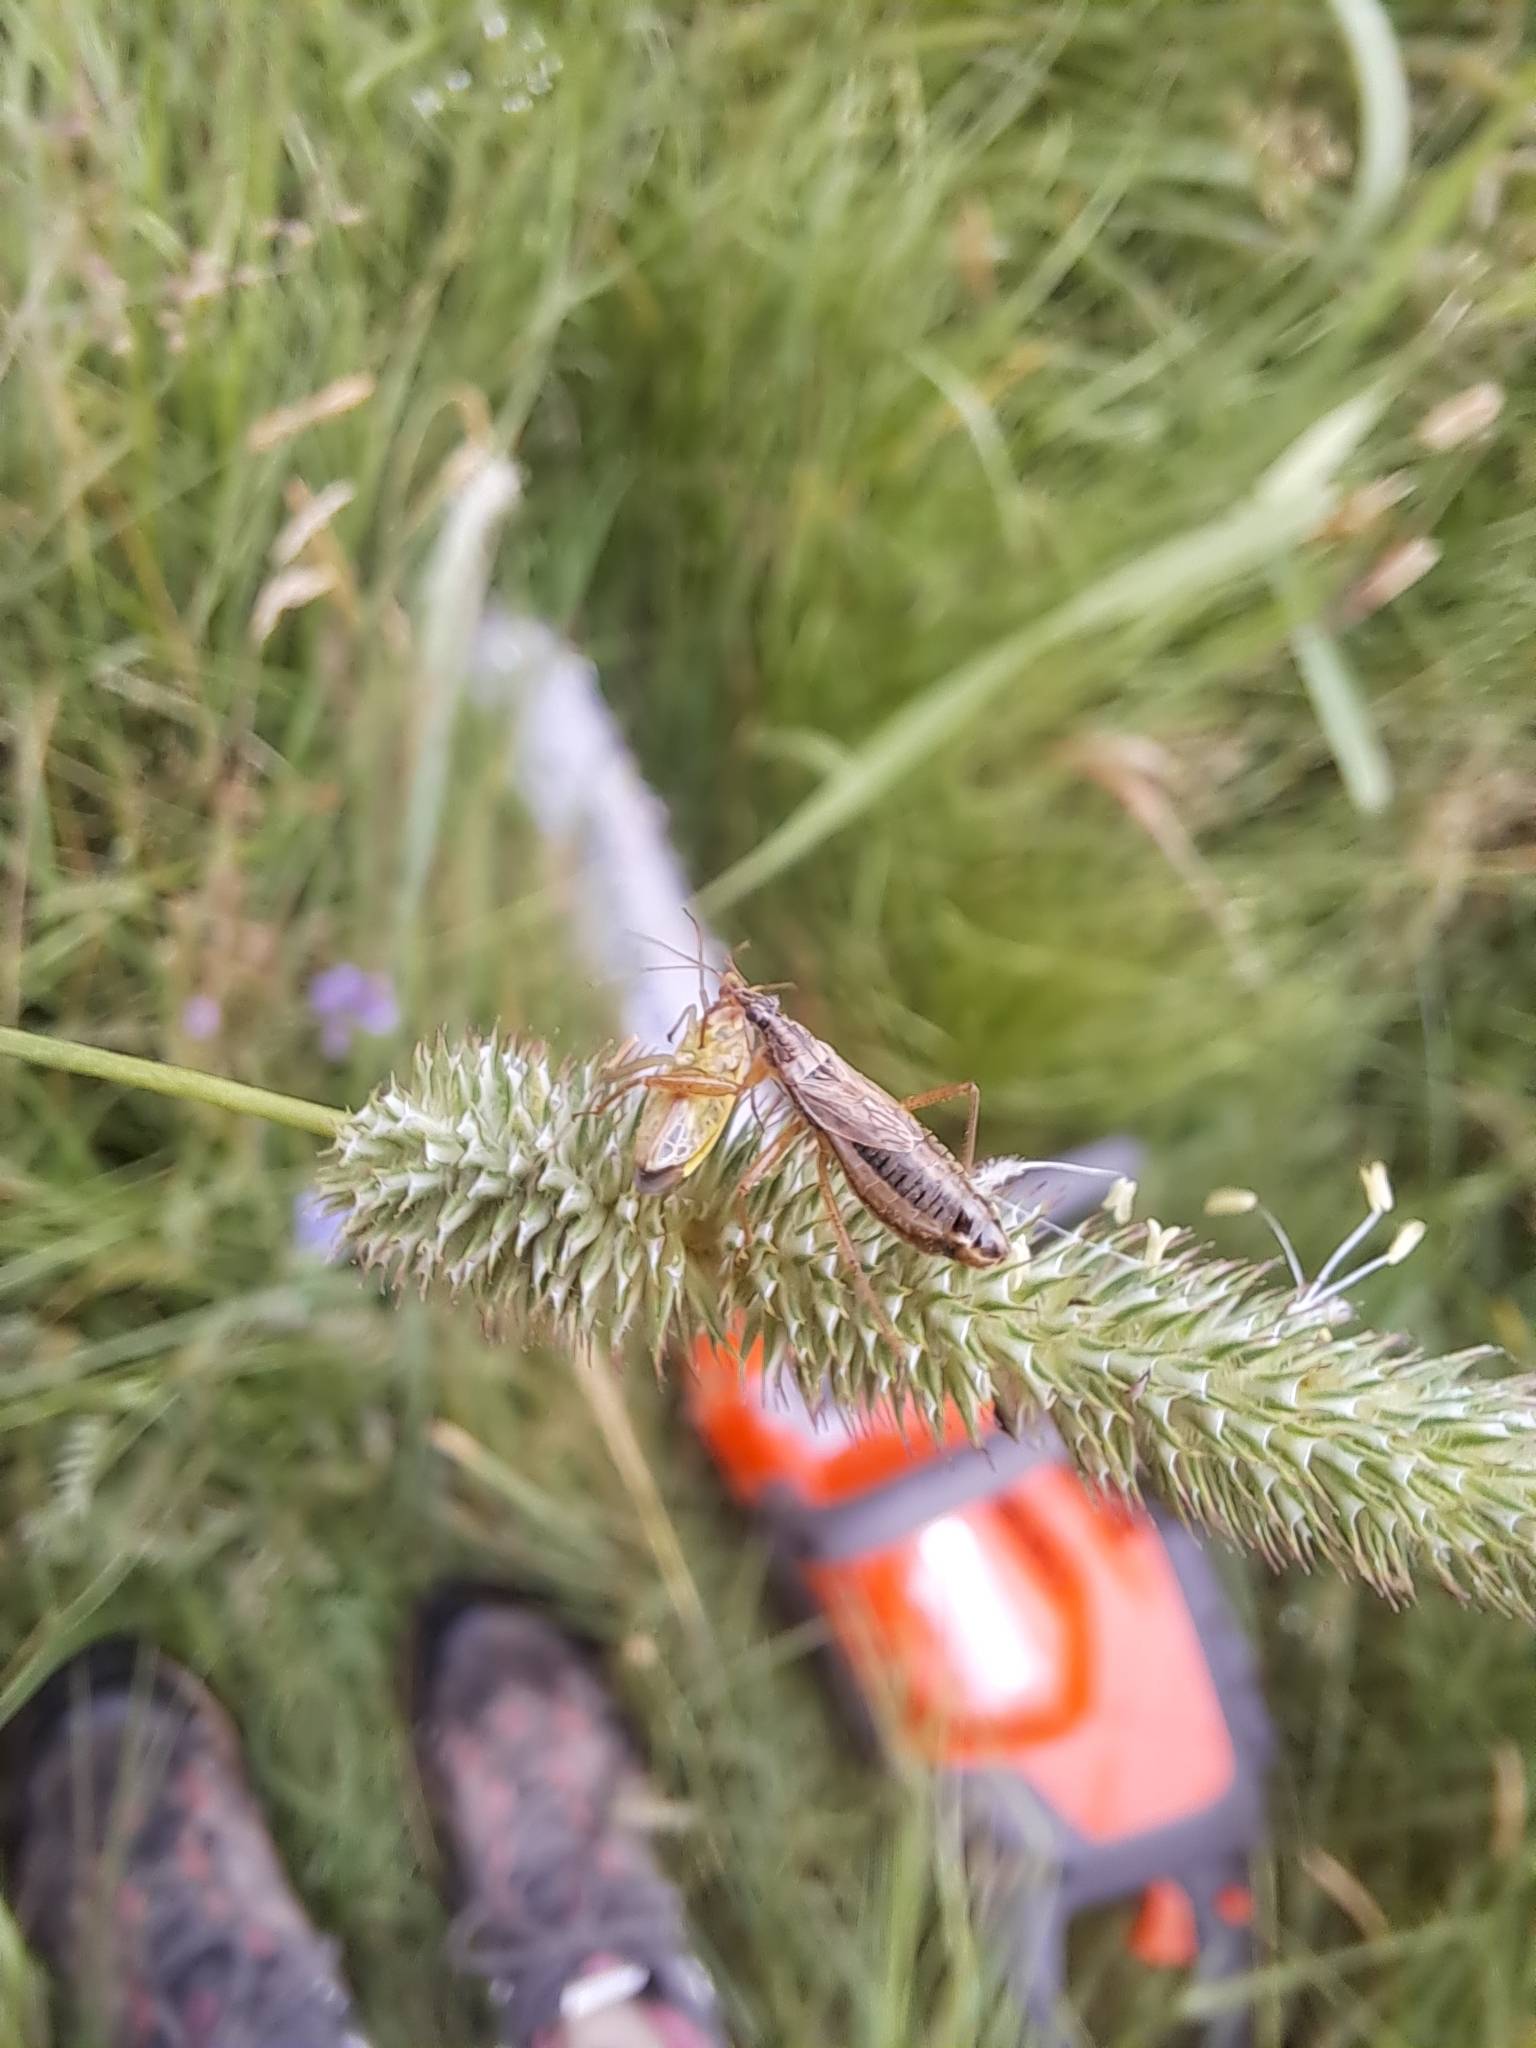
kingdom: Animalia
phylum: Arthropoda
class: Insecta
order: Hemiptera
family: Nabidae
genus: Nabis
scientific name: Nabis flavomarginatus
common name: Broad damselbug
